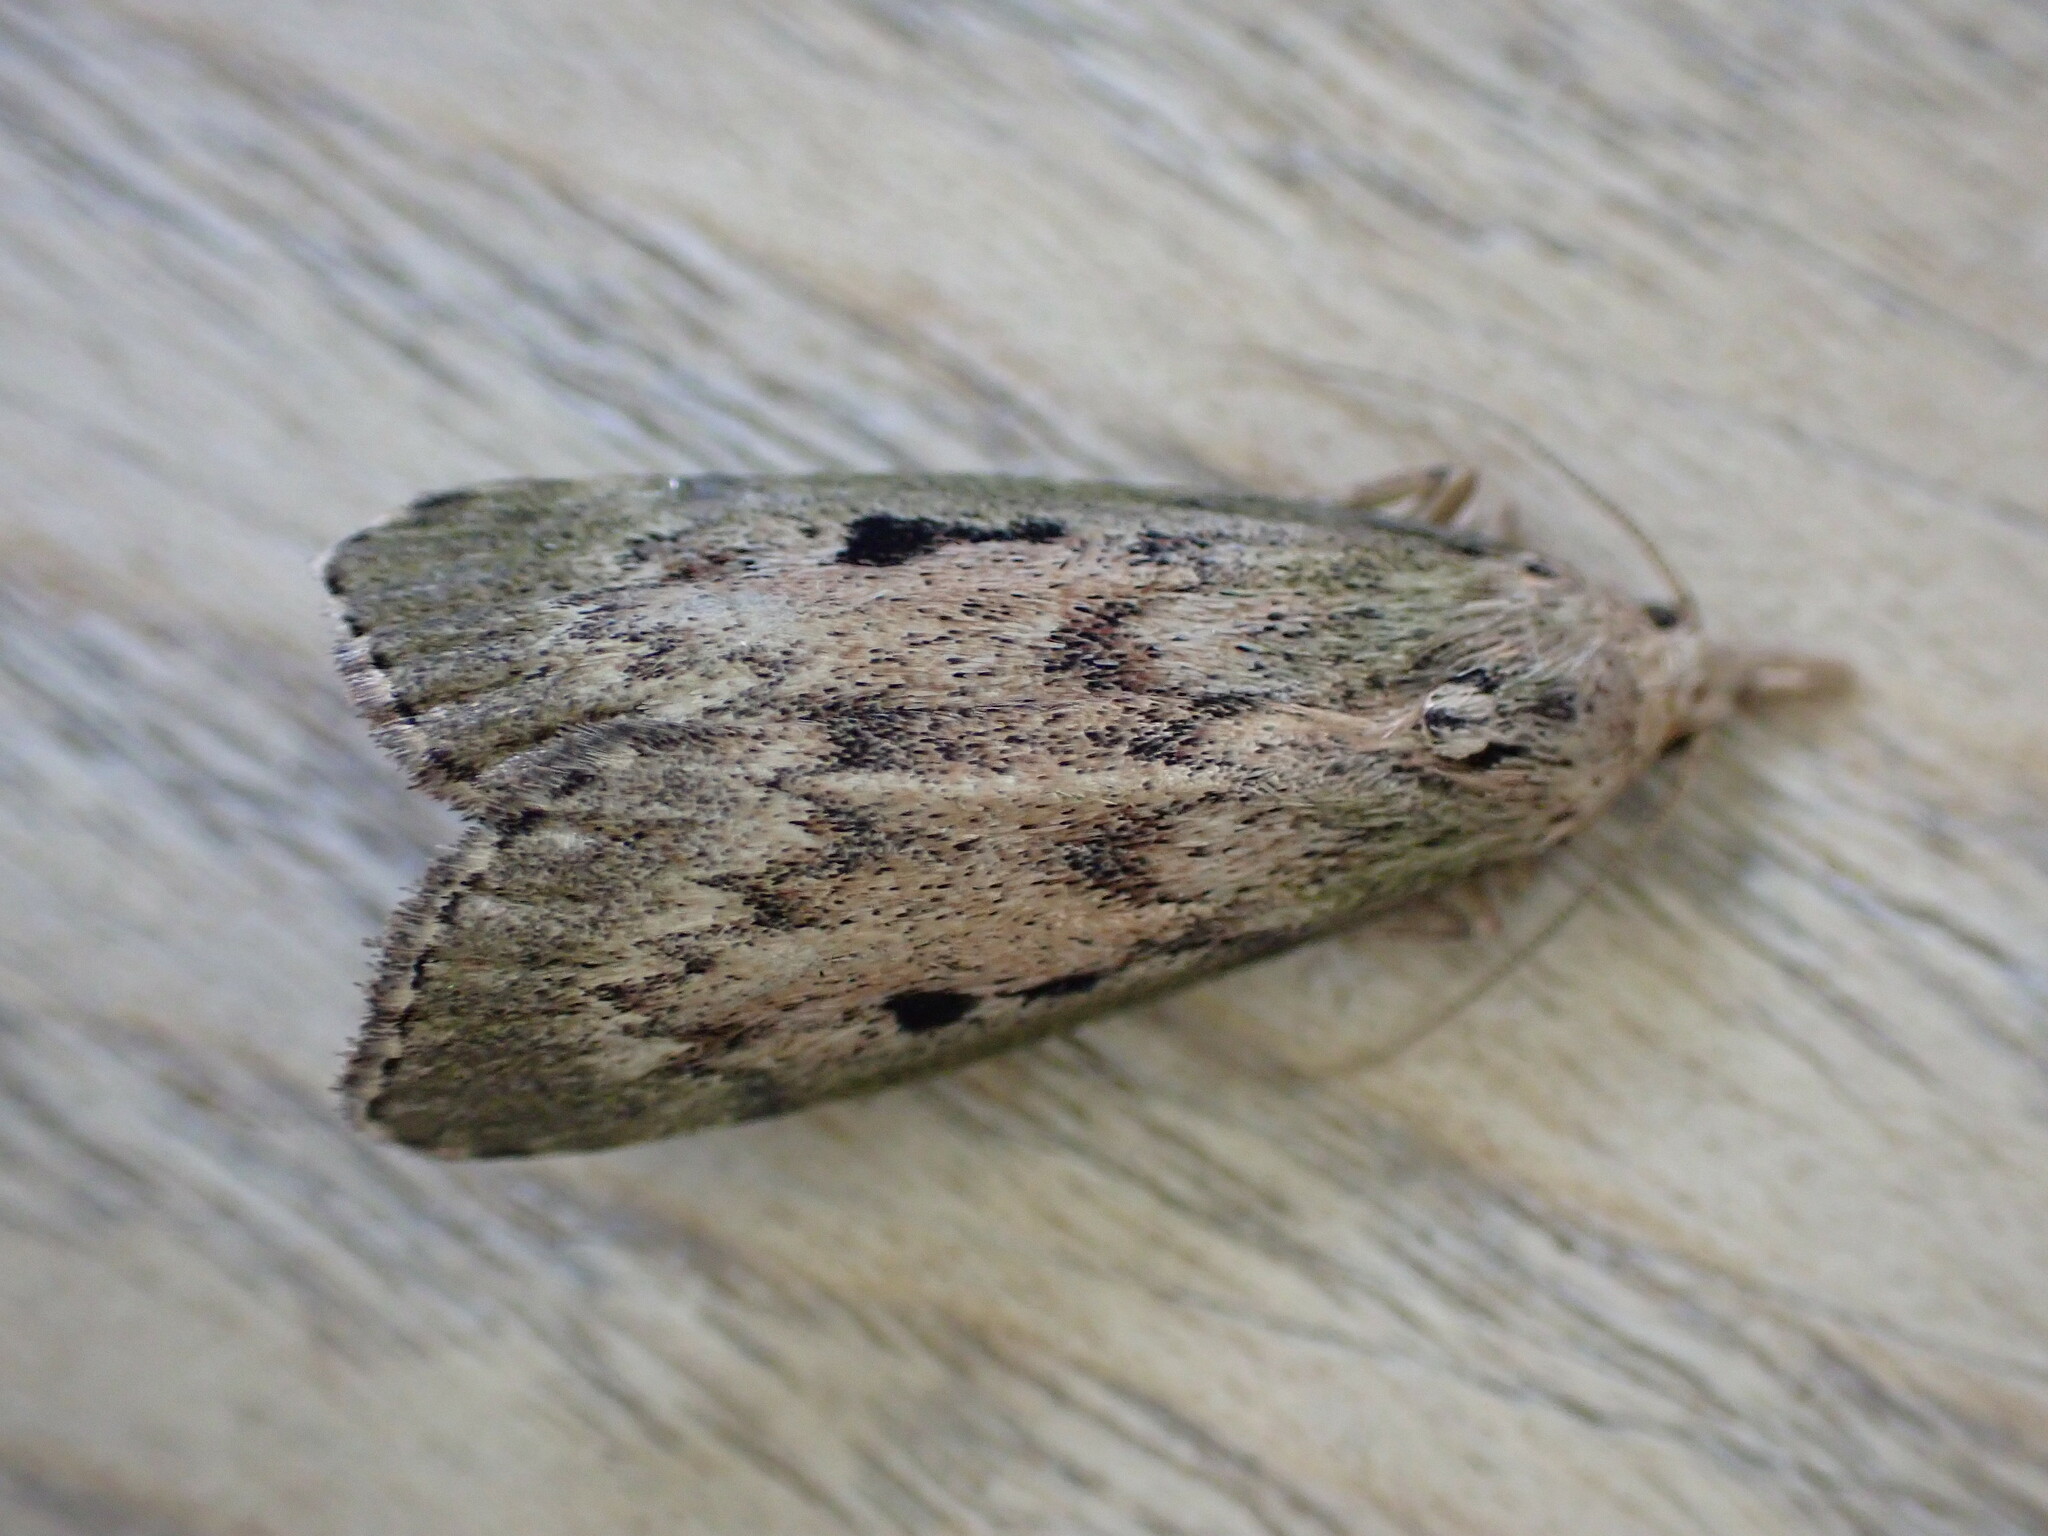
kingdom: Animalia
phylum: Arthropoda
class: Insecta
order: Lepidoptera
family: Pyralidae
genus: Aphomia
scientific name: Aphomia sociella
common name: Bee moth
